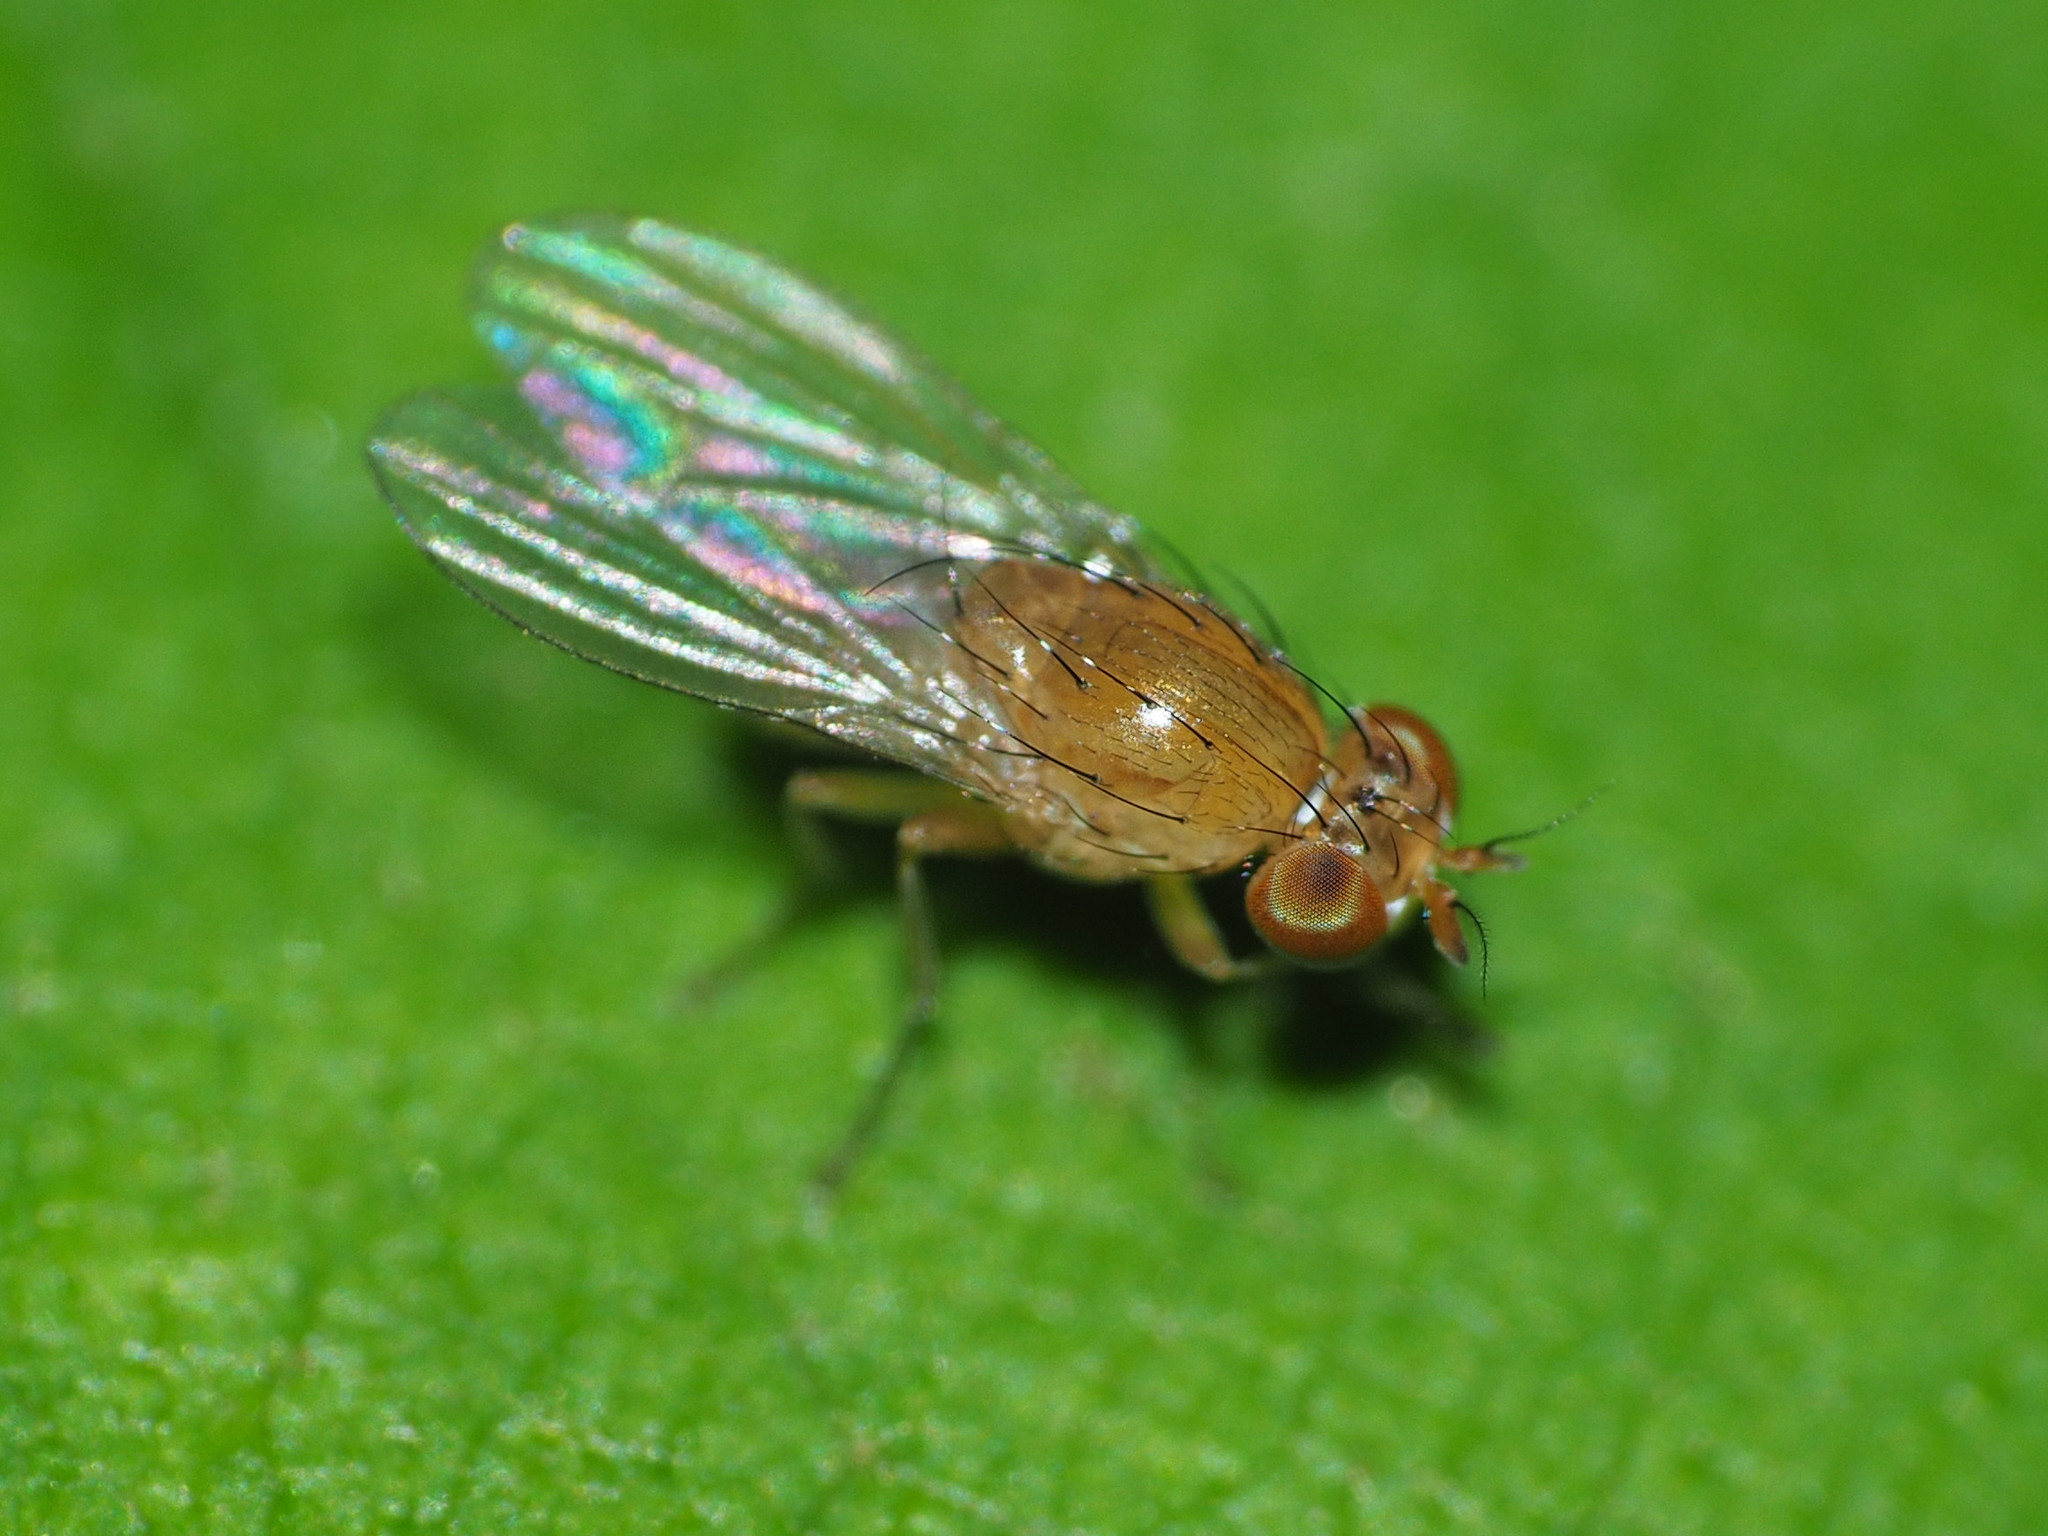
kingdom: Animalia
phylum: Arthropoda
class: Insecta
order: Diptera
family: Lauxaniidae
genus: Homoneura
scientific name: Homoneura unguiculata
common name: Beach fly
